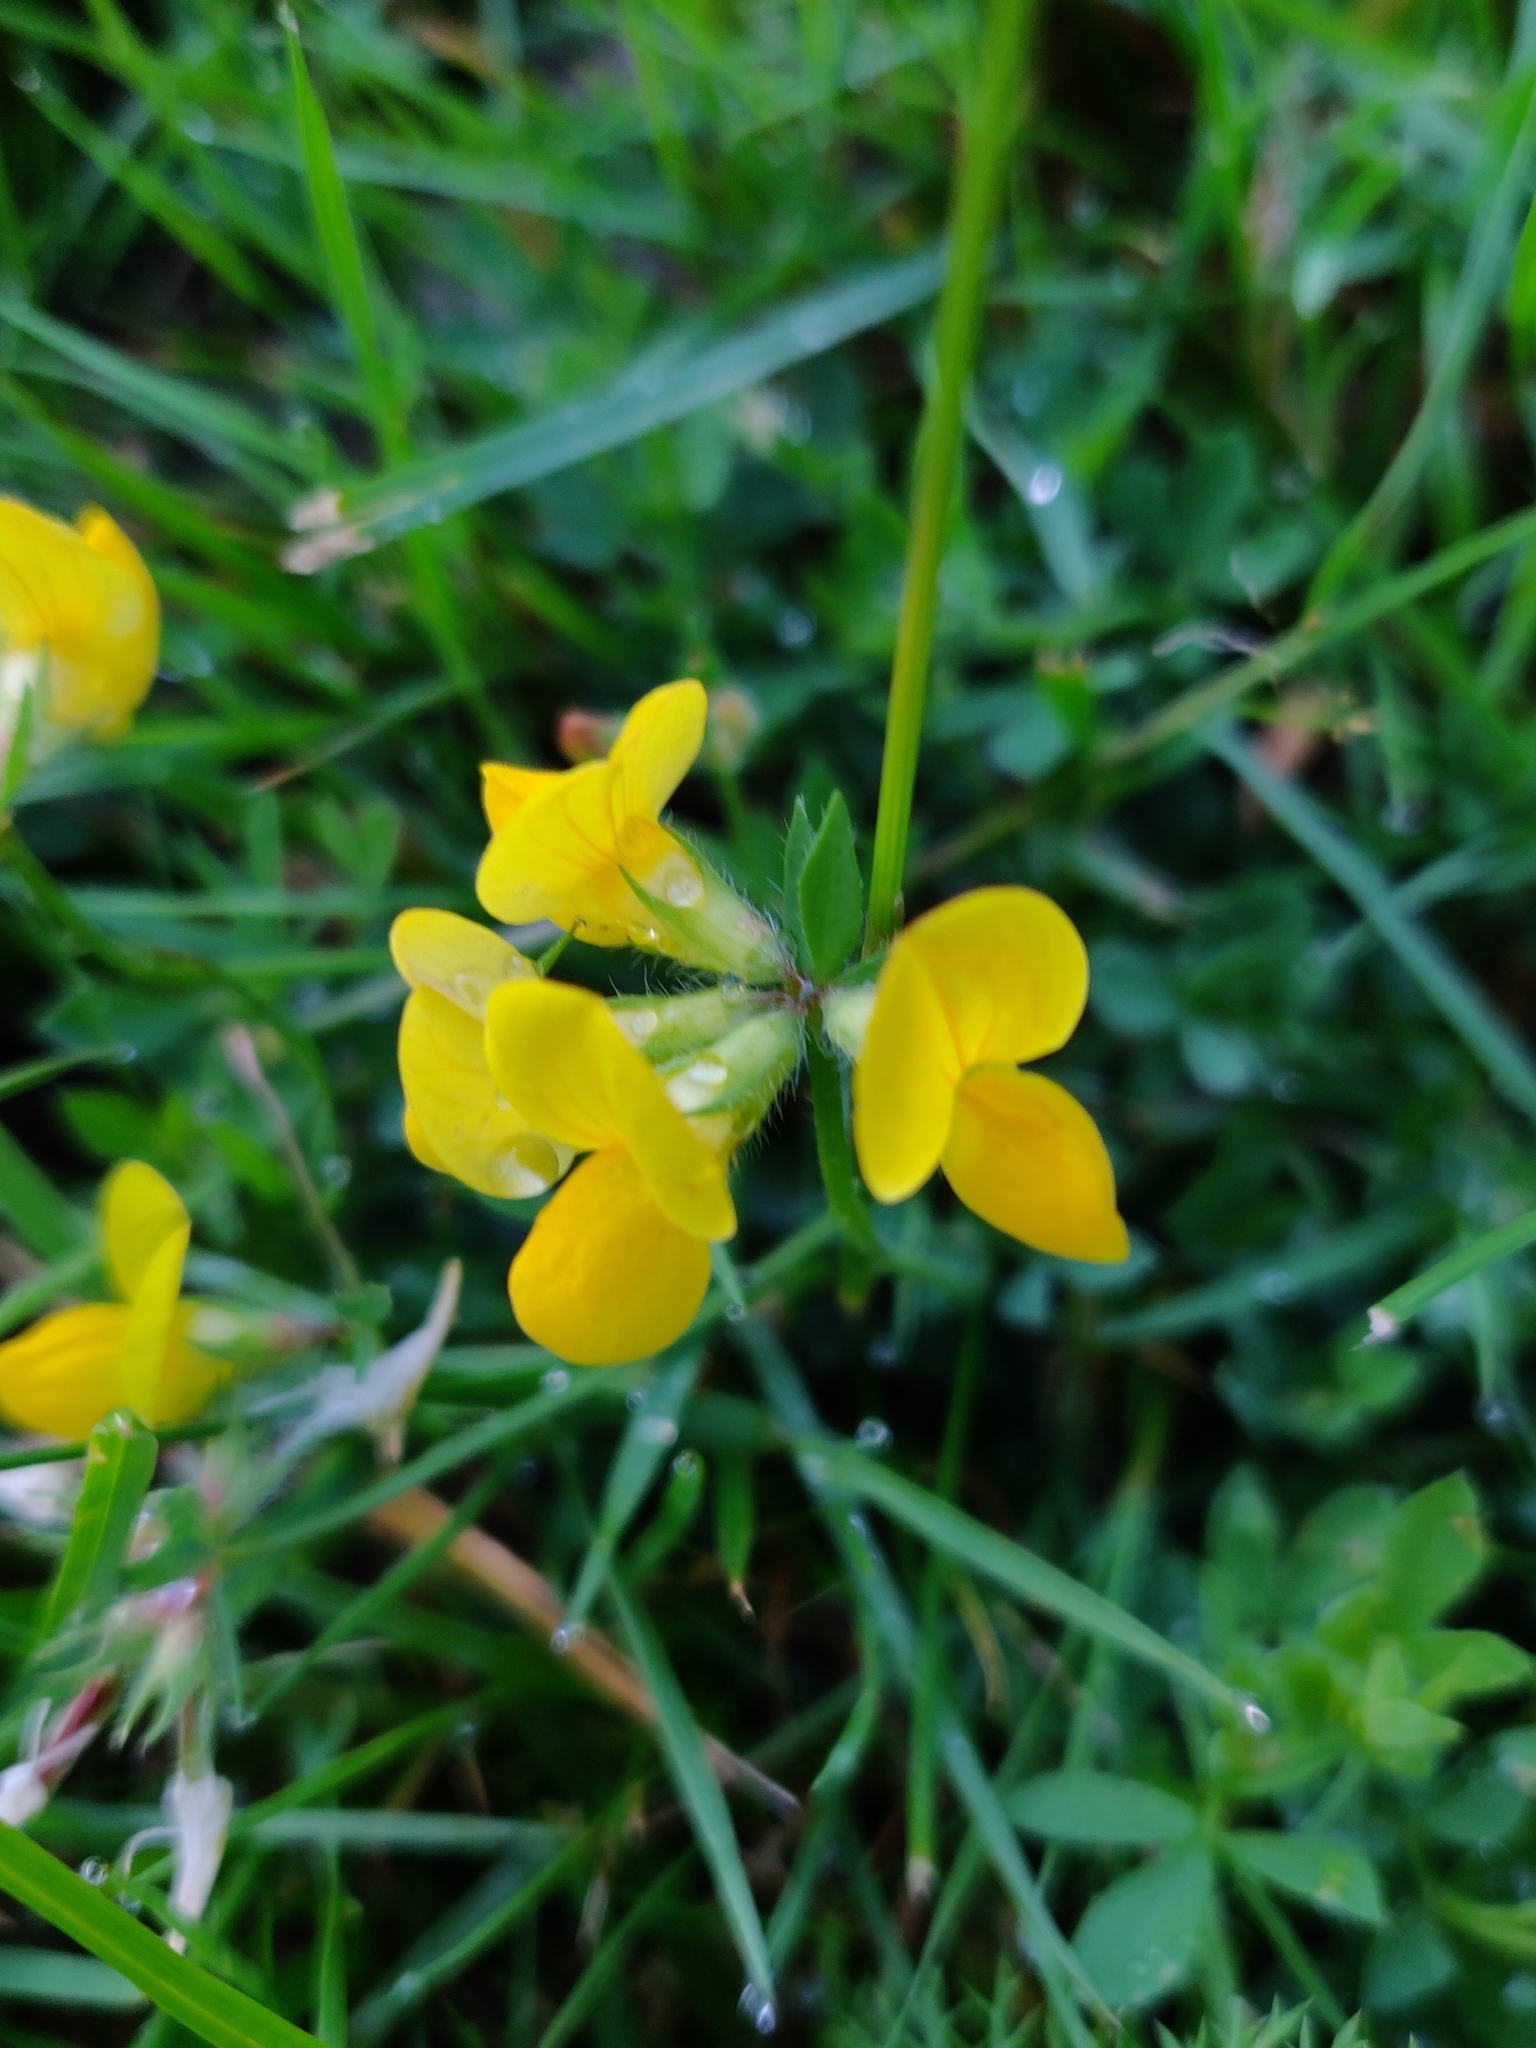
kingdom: Plantae
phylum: Tracheophyta
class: Magnoliopsida
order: Fabales
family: Fabaceae
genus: Lotus
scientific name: Lotus corniculatus
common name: Common bird's-foot-trefoil
